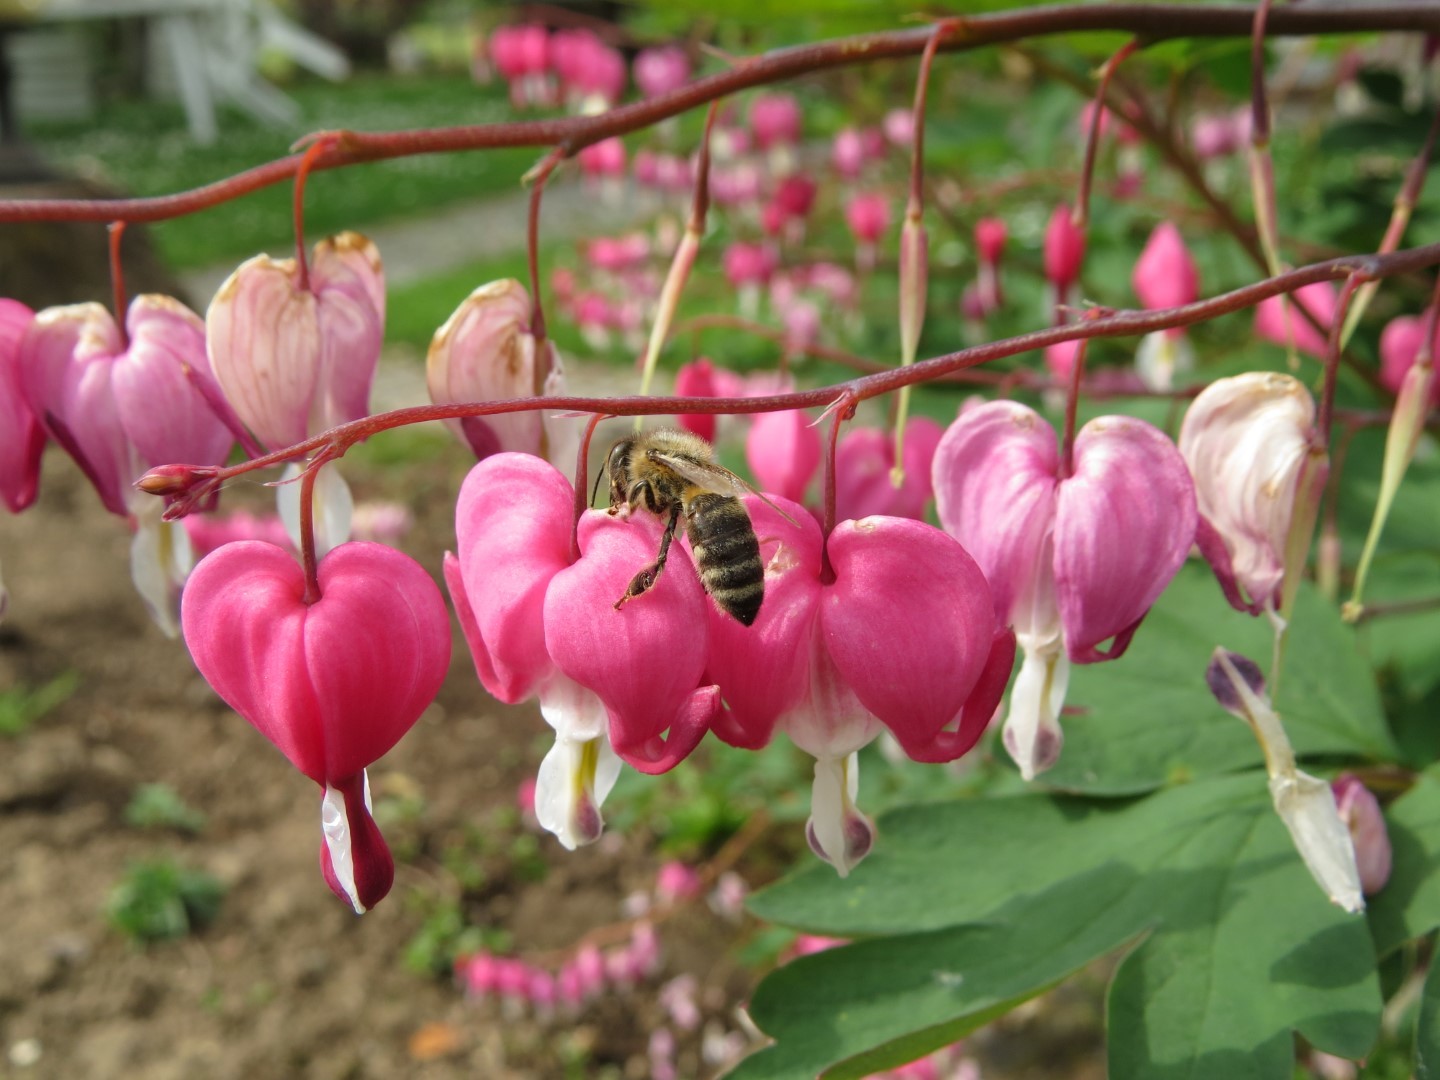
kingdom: Animalia
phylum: Arthropoda
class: Insecta
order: Hymenoptera
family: Apidae
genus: Apis
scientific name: Apis mellifera
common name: Honey bee
